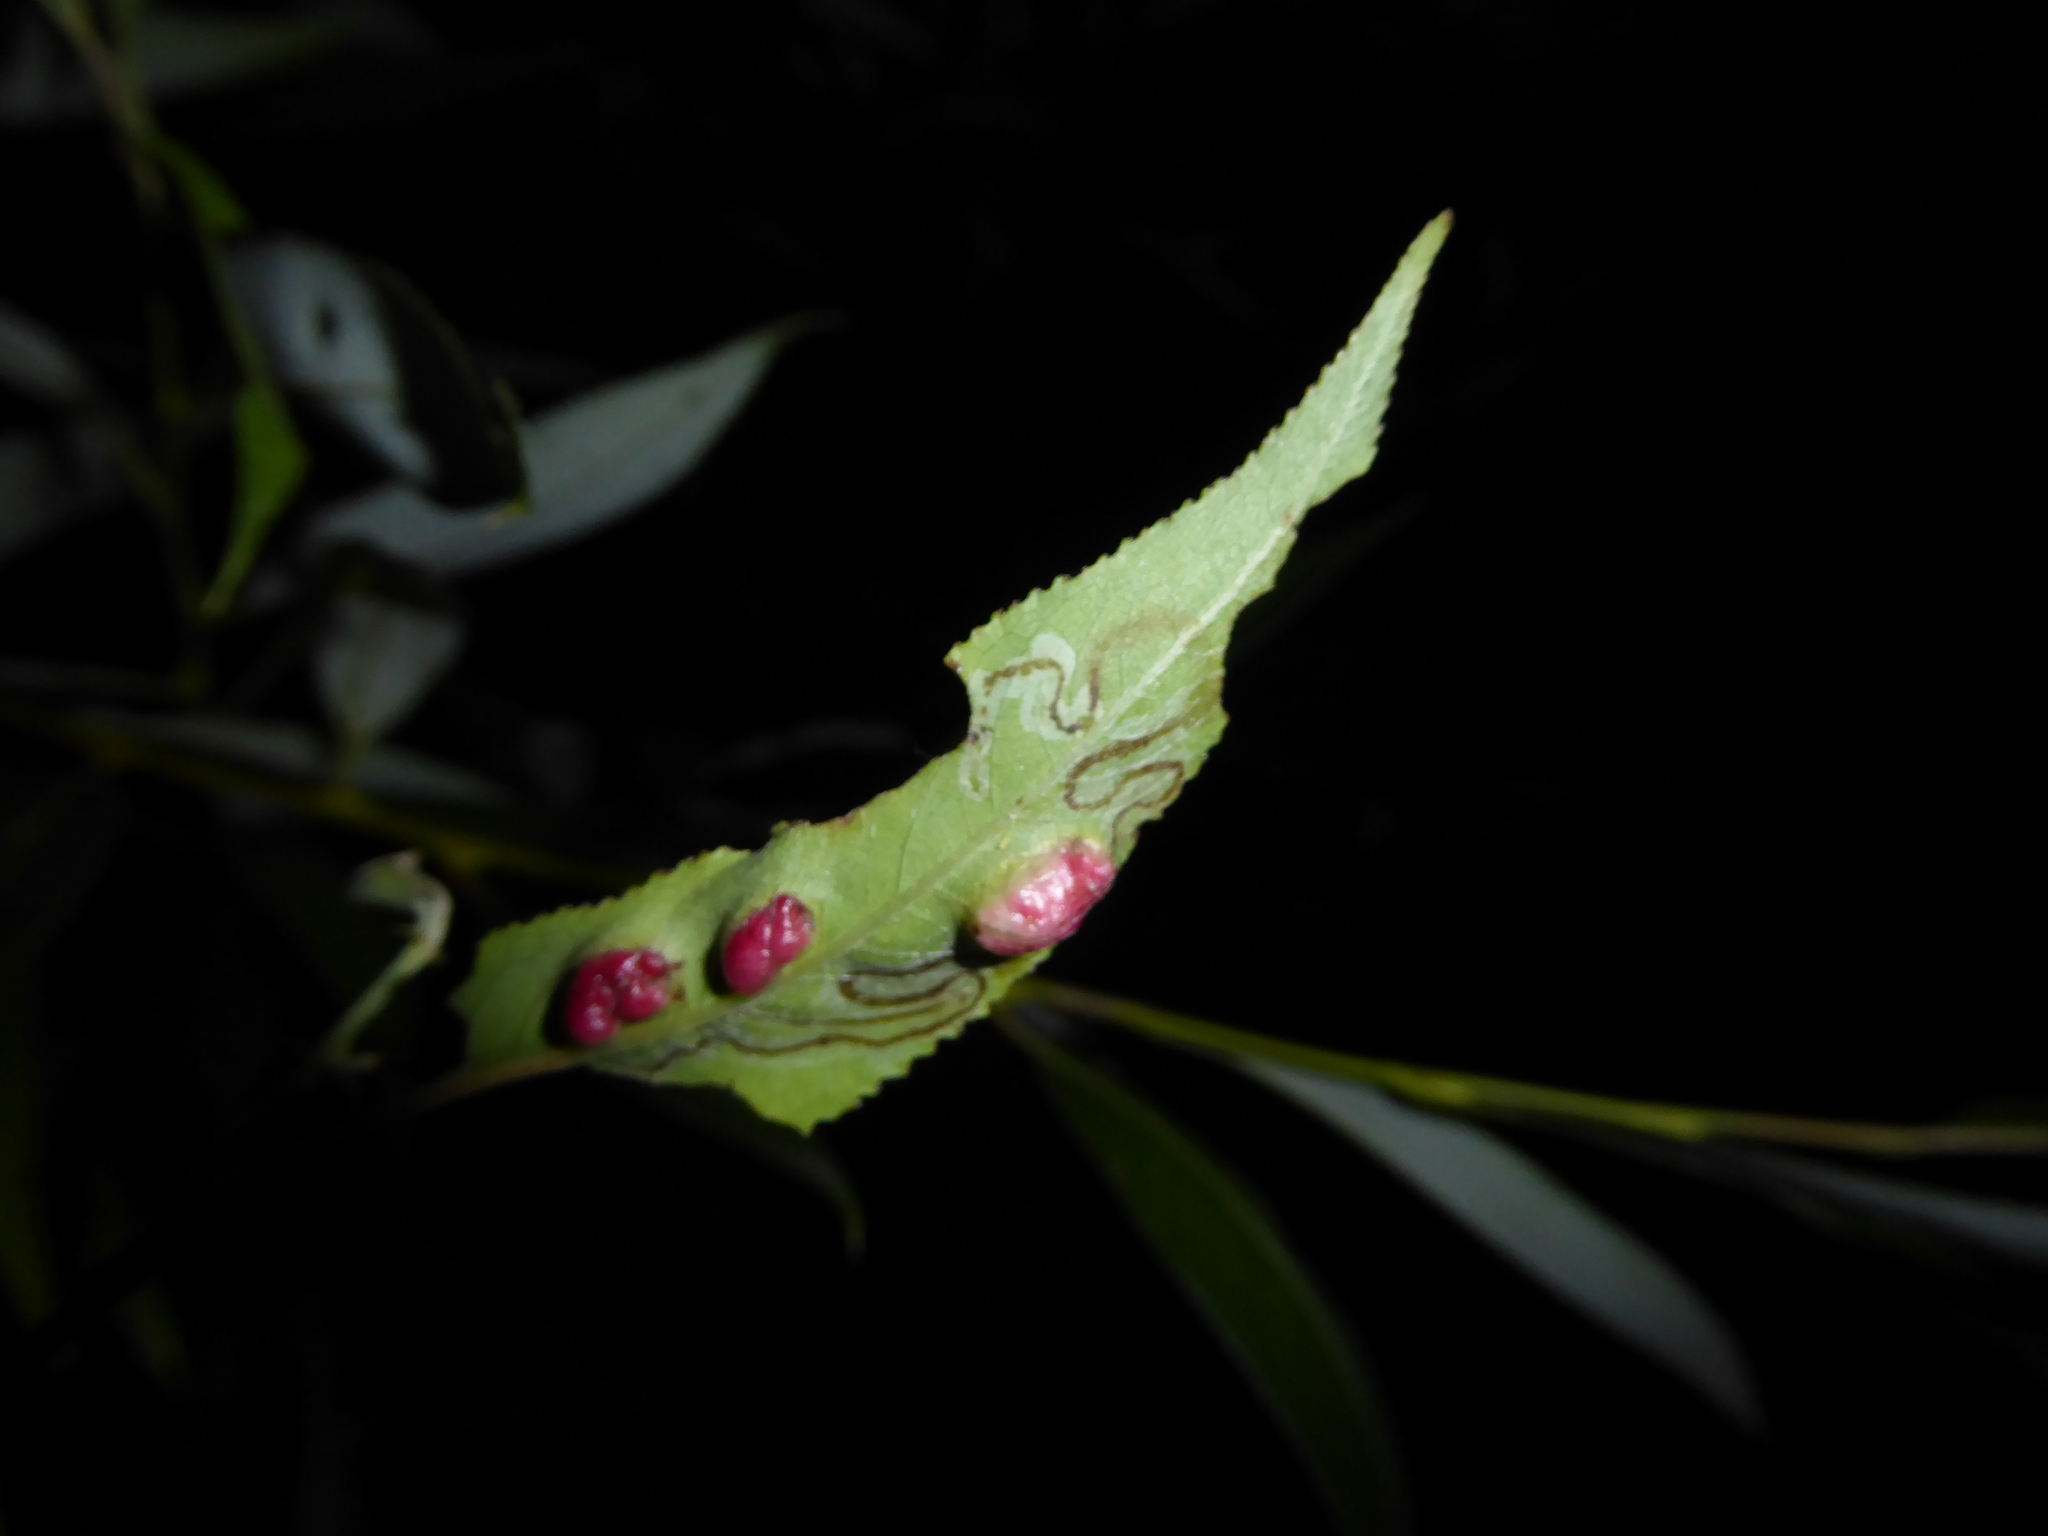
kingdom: Animalia
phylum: Arthropoda
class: Insecta
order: Hymenoptera
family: Tenthredinidae
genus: Pontania
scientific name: Pontania proxima
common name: Common sawfly
